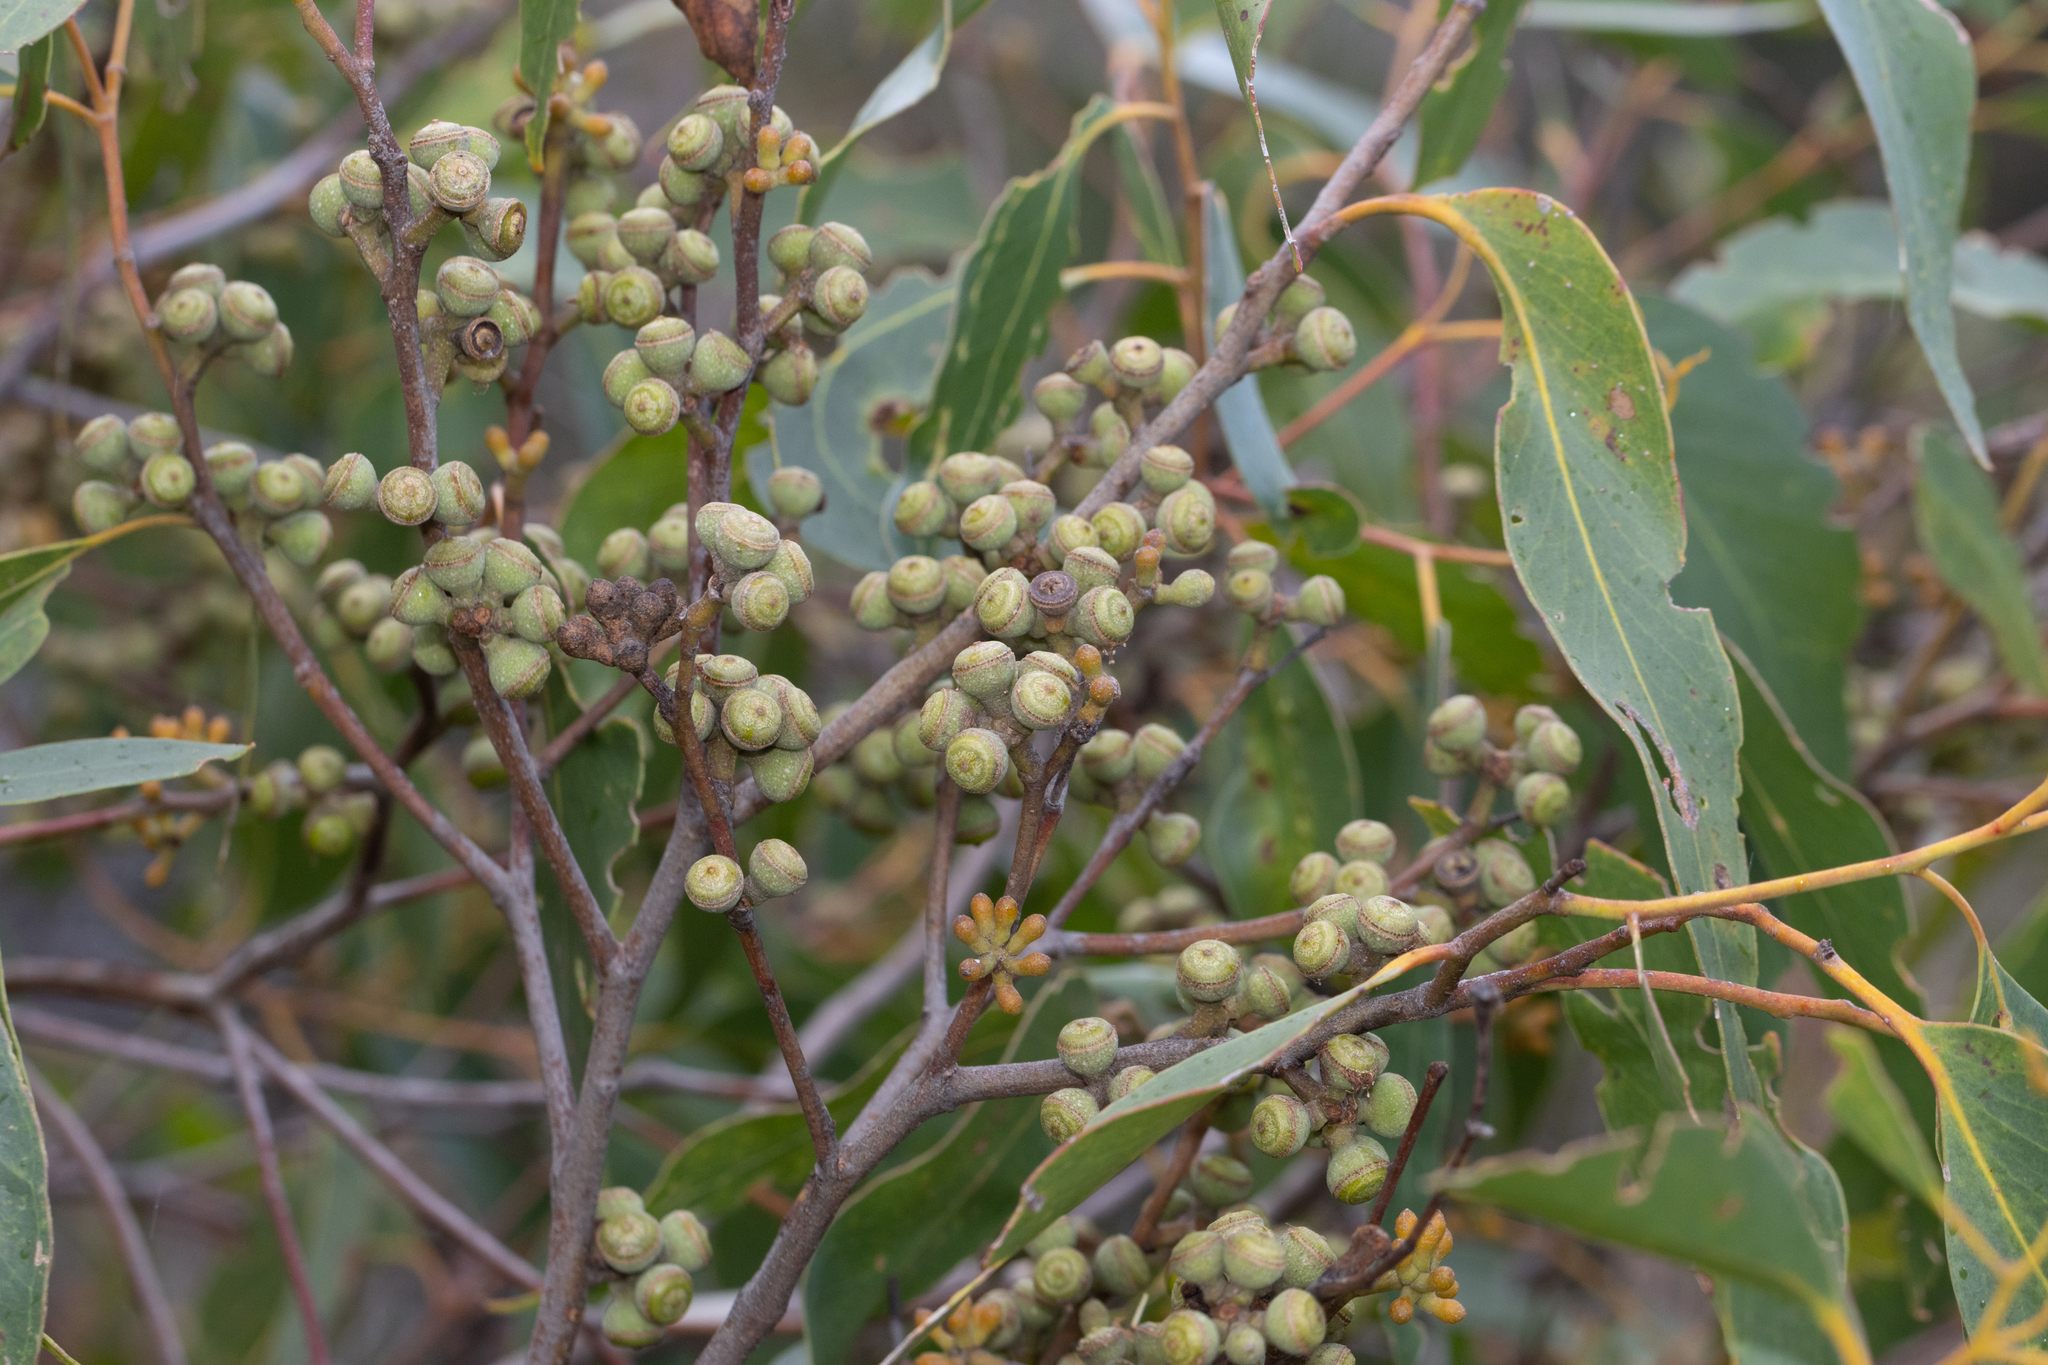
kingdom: Plantae
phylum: Tracheophyta
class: Magnoliopsida
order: Myrtales
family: Myrtaceae
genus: Eucalyptus
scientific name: Eucalyptus baxteri
